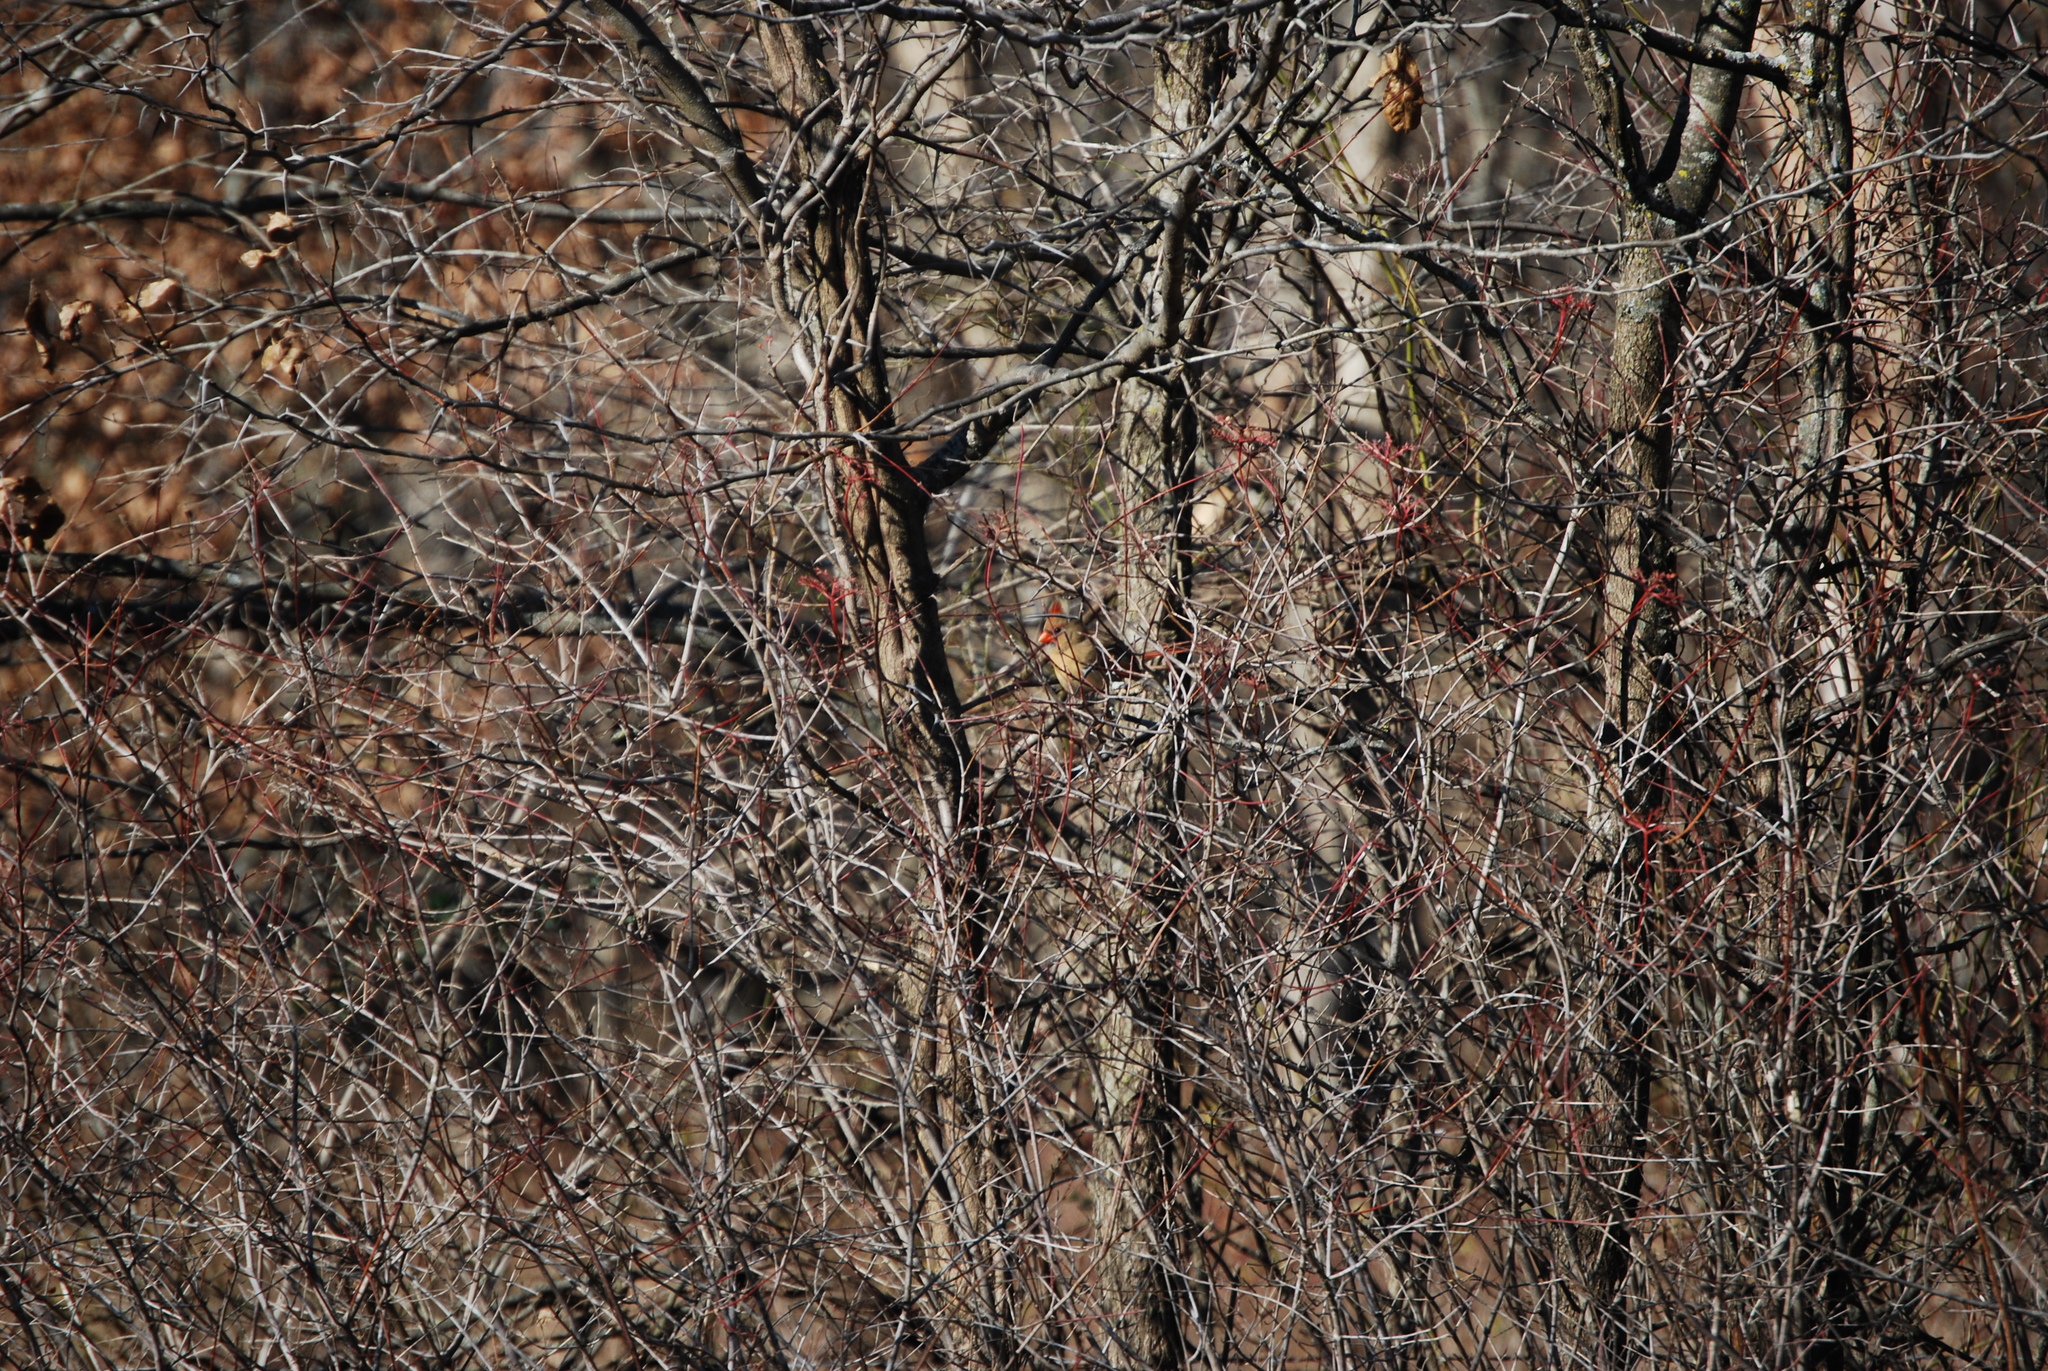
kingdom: Animalia
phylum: Chordata
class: Aves
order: Passeriformes
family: Cardinalidae
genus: Cardinalis
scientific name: Cardinalis cardinalis
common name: Northern cardinal
